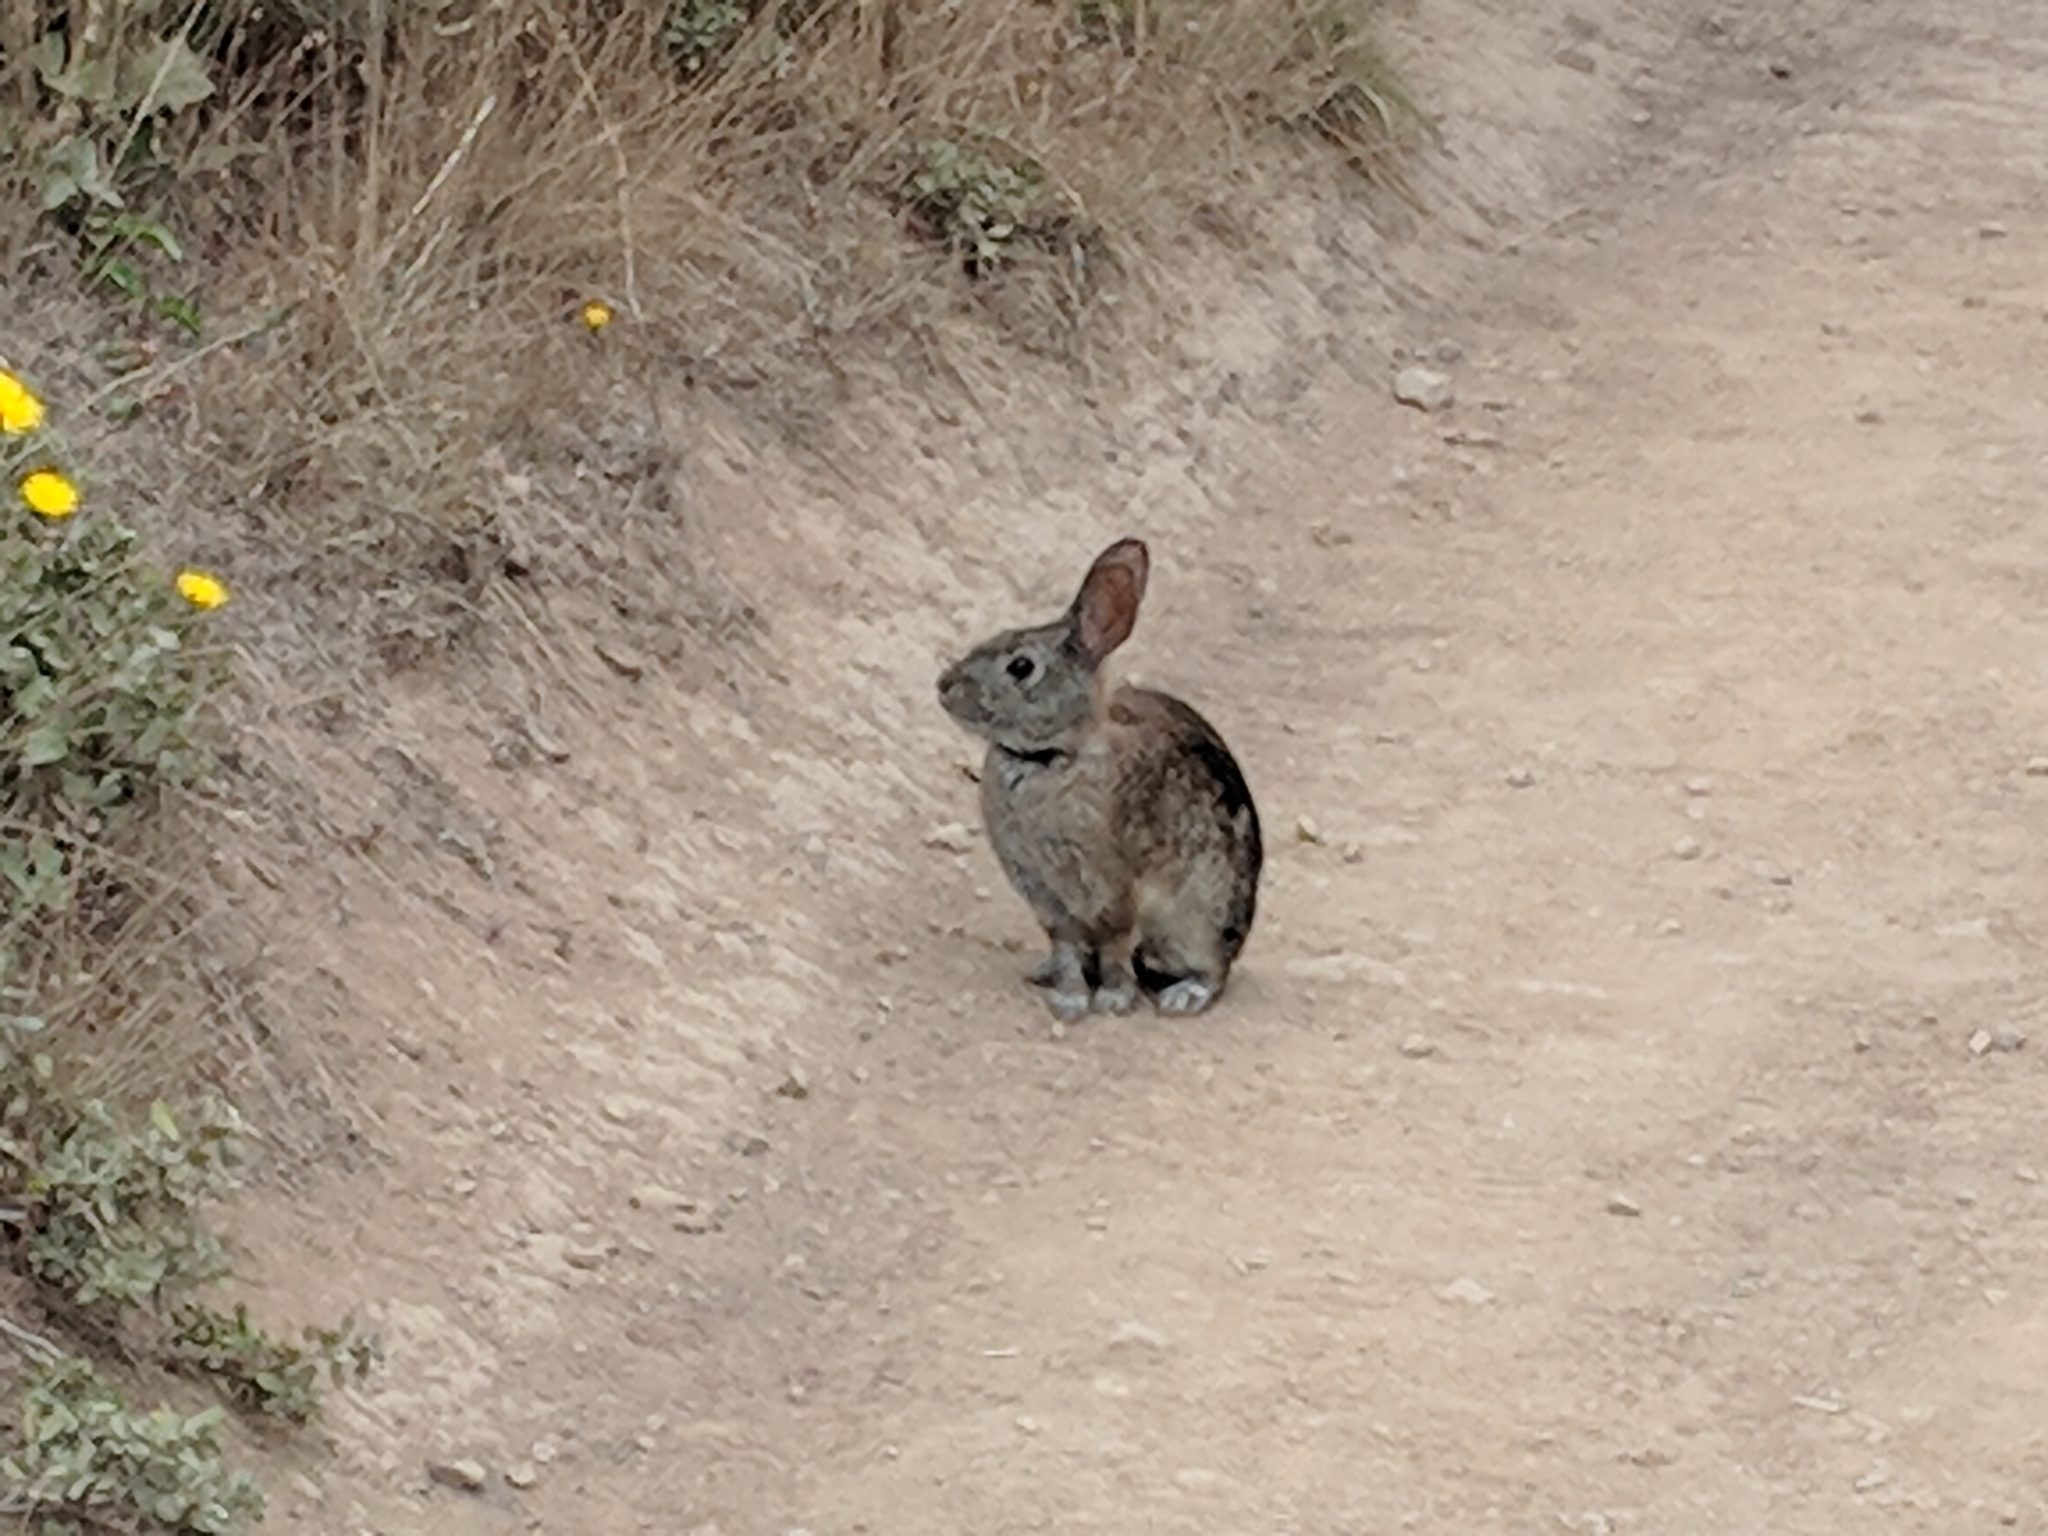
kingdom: Animalia
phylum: Chordata
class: Mammalia
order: Lagomorpha
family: Leporidae
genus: Sylvilagus
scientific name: Sylvilagus bachmani
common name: Brush rabbit
